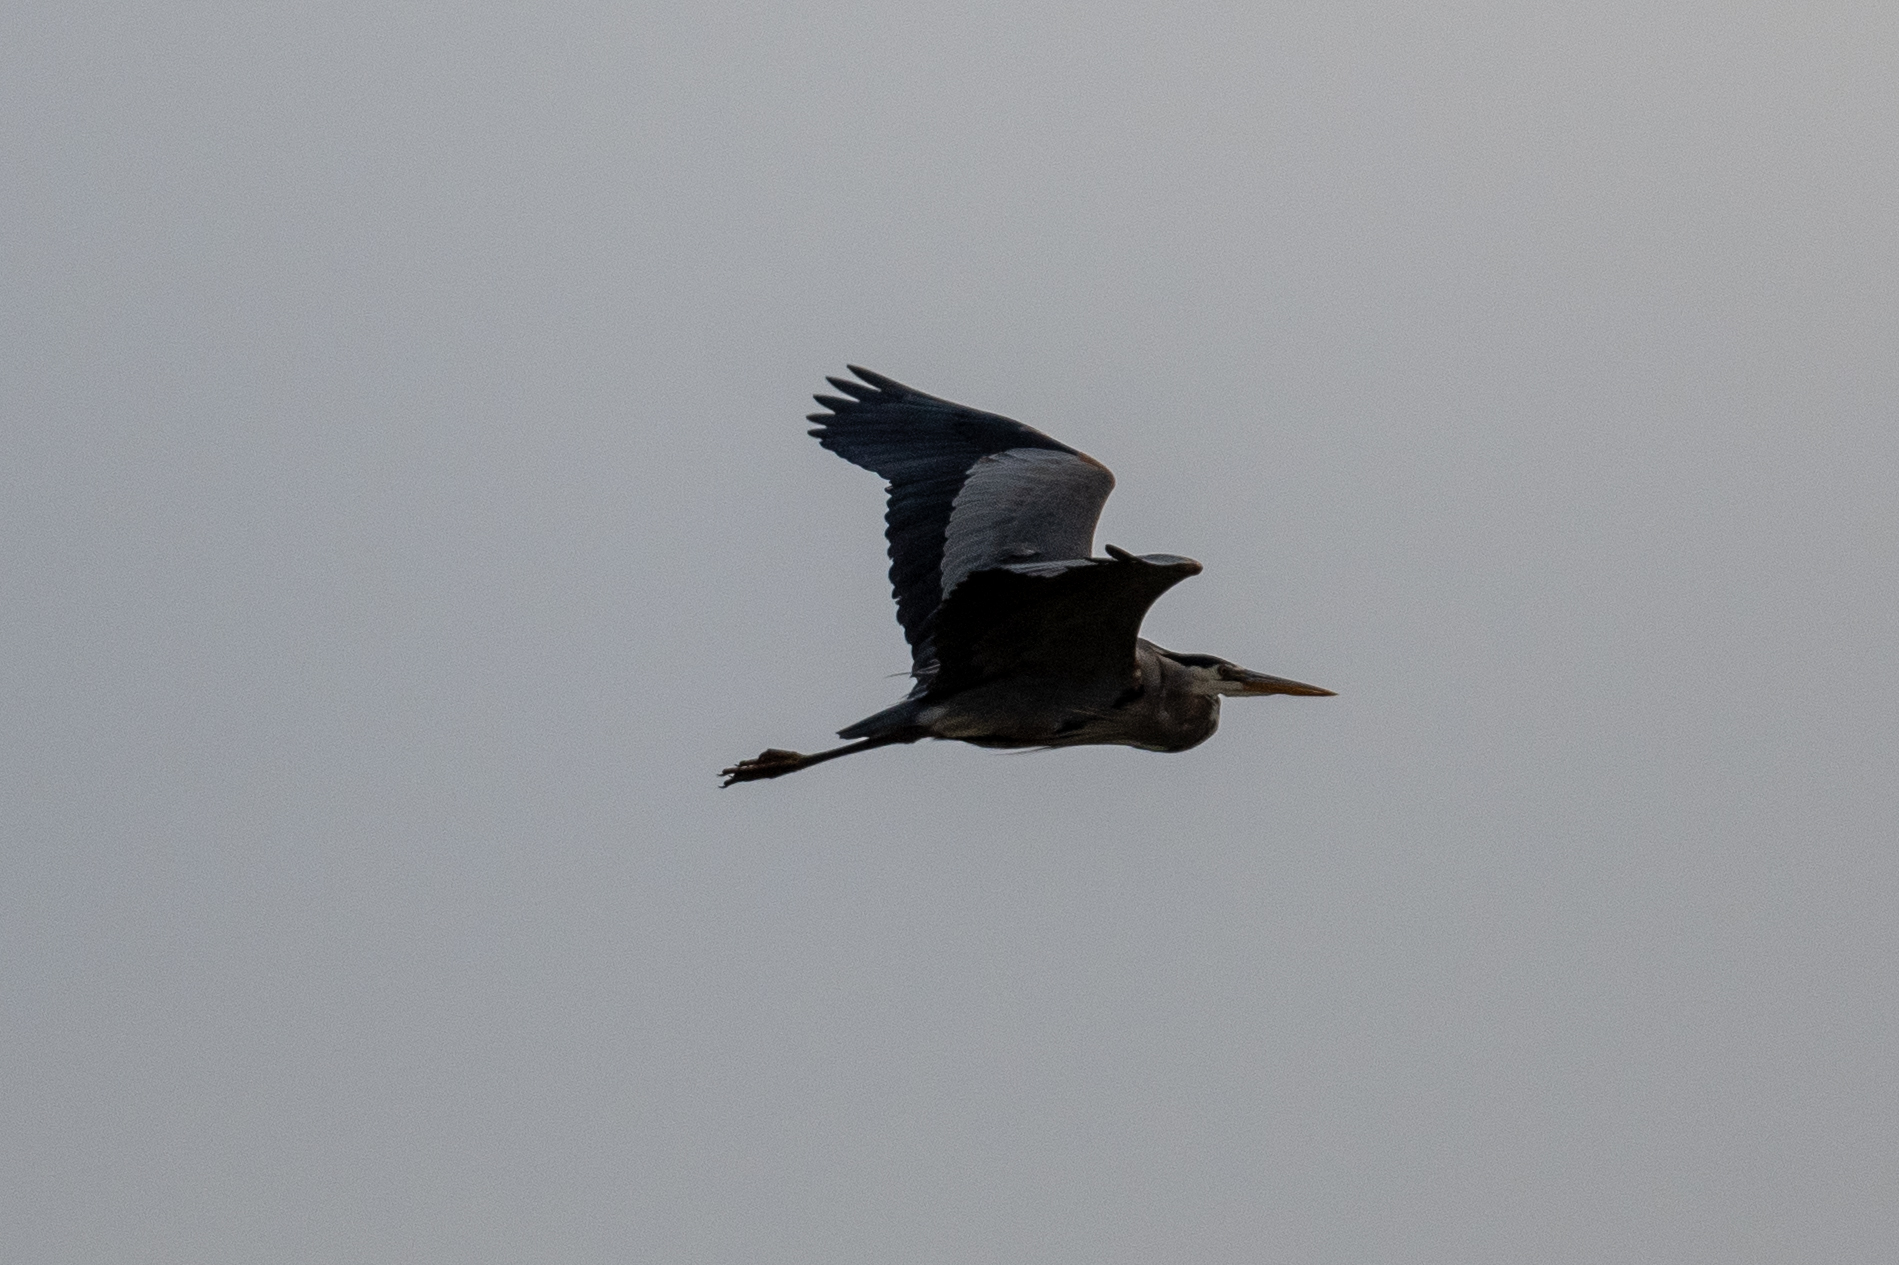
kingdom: Animalia
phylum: Chordata
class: Aves
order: Pelecaniformes
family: Ardeidae
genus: Ardea
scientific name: Ardea herodias
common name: Great blue heron
